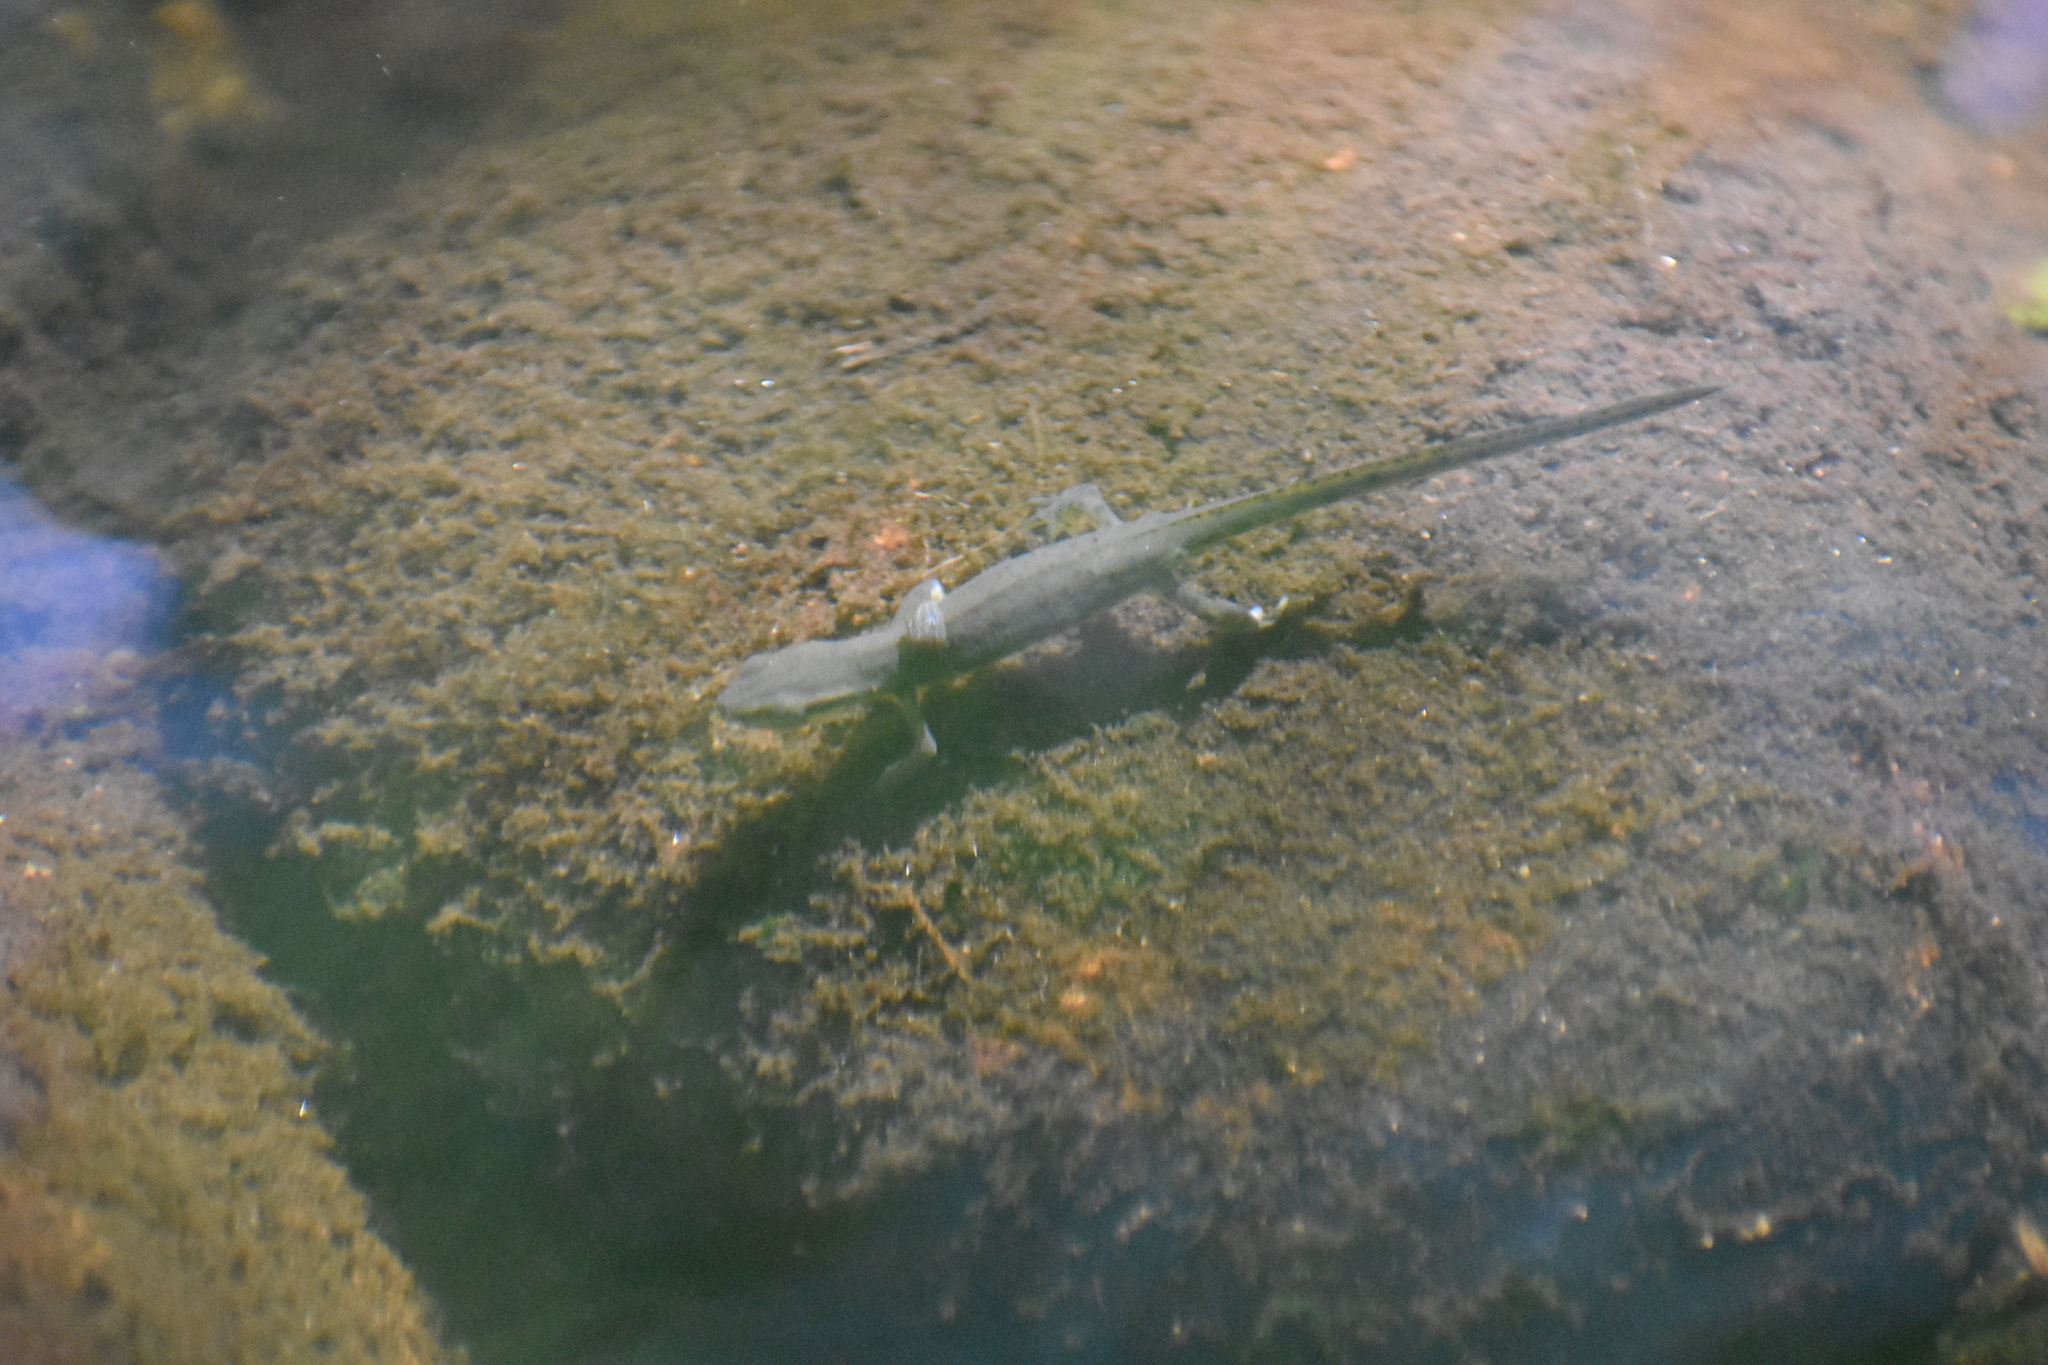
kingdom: Animalia
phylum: Chordata
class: Amphibia
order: Caudata
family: Salamandridae
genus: Notophthalmus
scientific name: Notophthalmus viridescens
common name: Eastern newt
